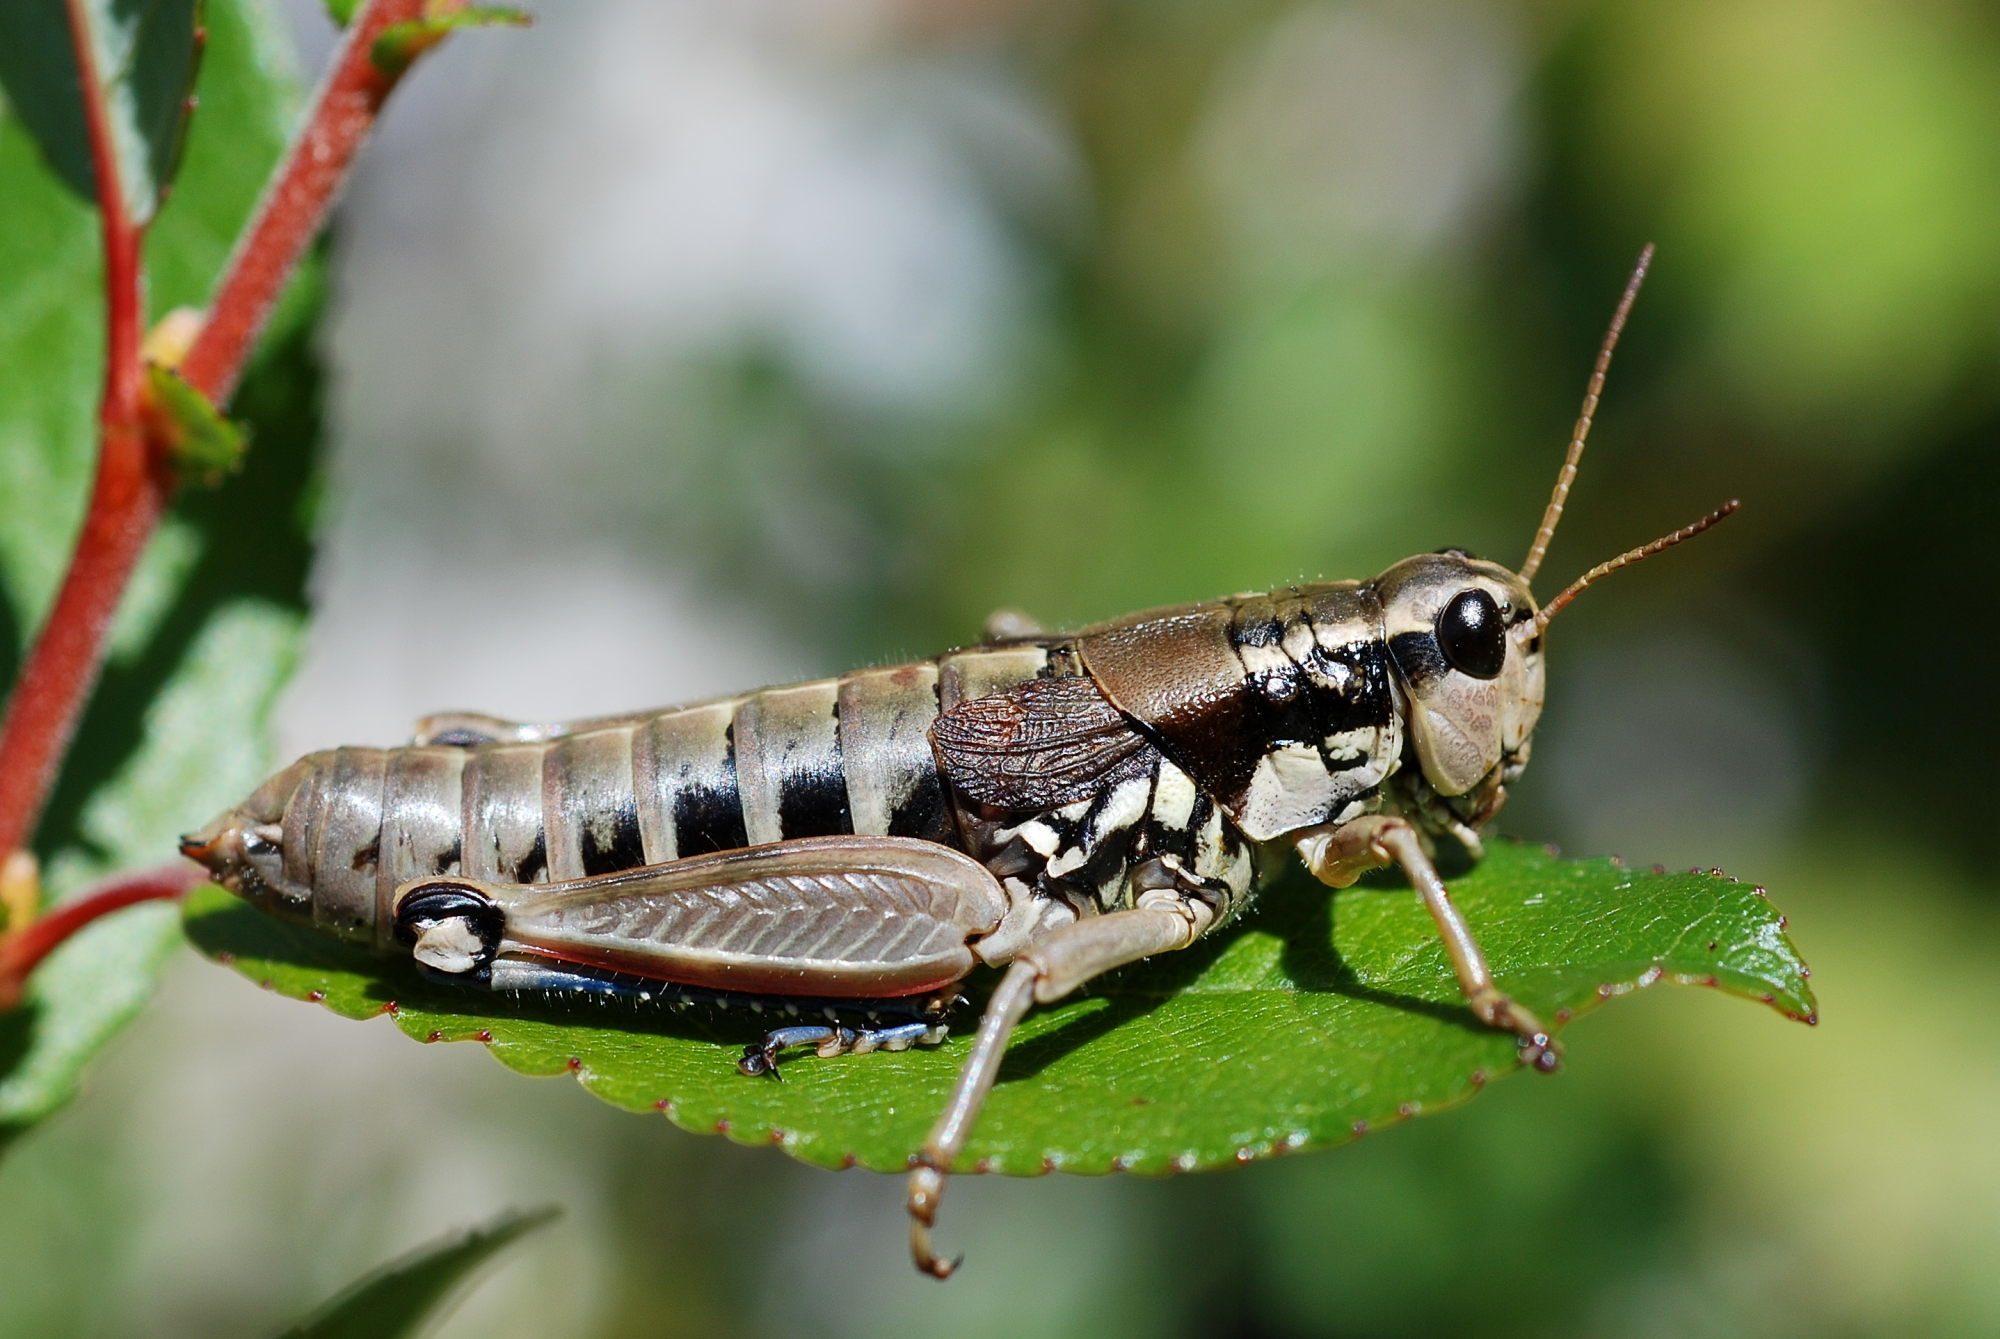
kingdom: Animalia
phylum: Arthropoda
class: Insecta
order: Orthoptera
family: Acrididae
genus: Podisma
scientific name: Podisma pedestris
